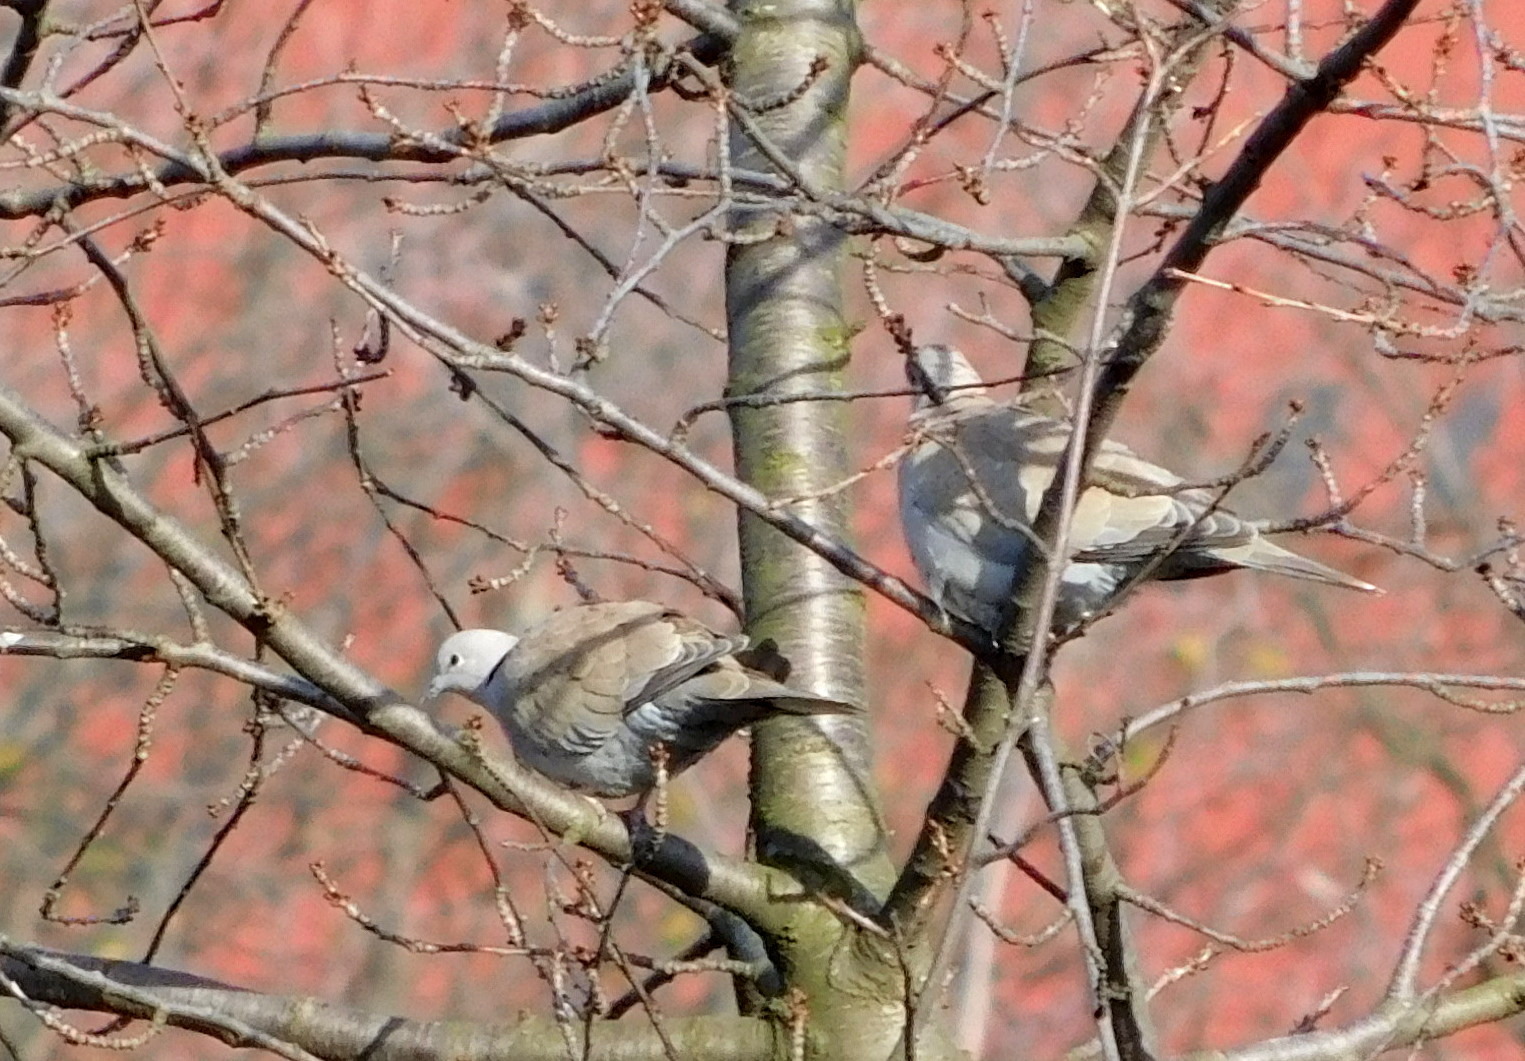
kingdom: Animalia
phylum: Chordata
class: Aves
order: Columbiformes
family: Columbidae
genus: Streptopelia
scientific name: Streptopelia decaocto
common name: Eurasian collared dove
